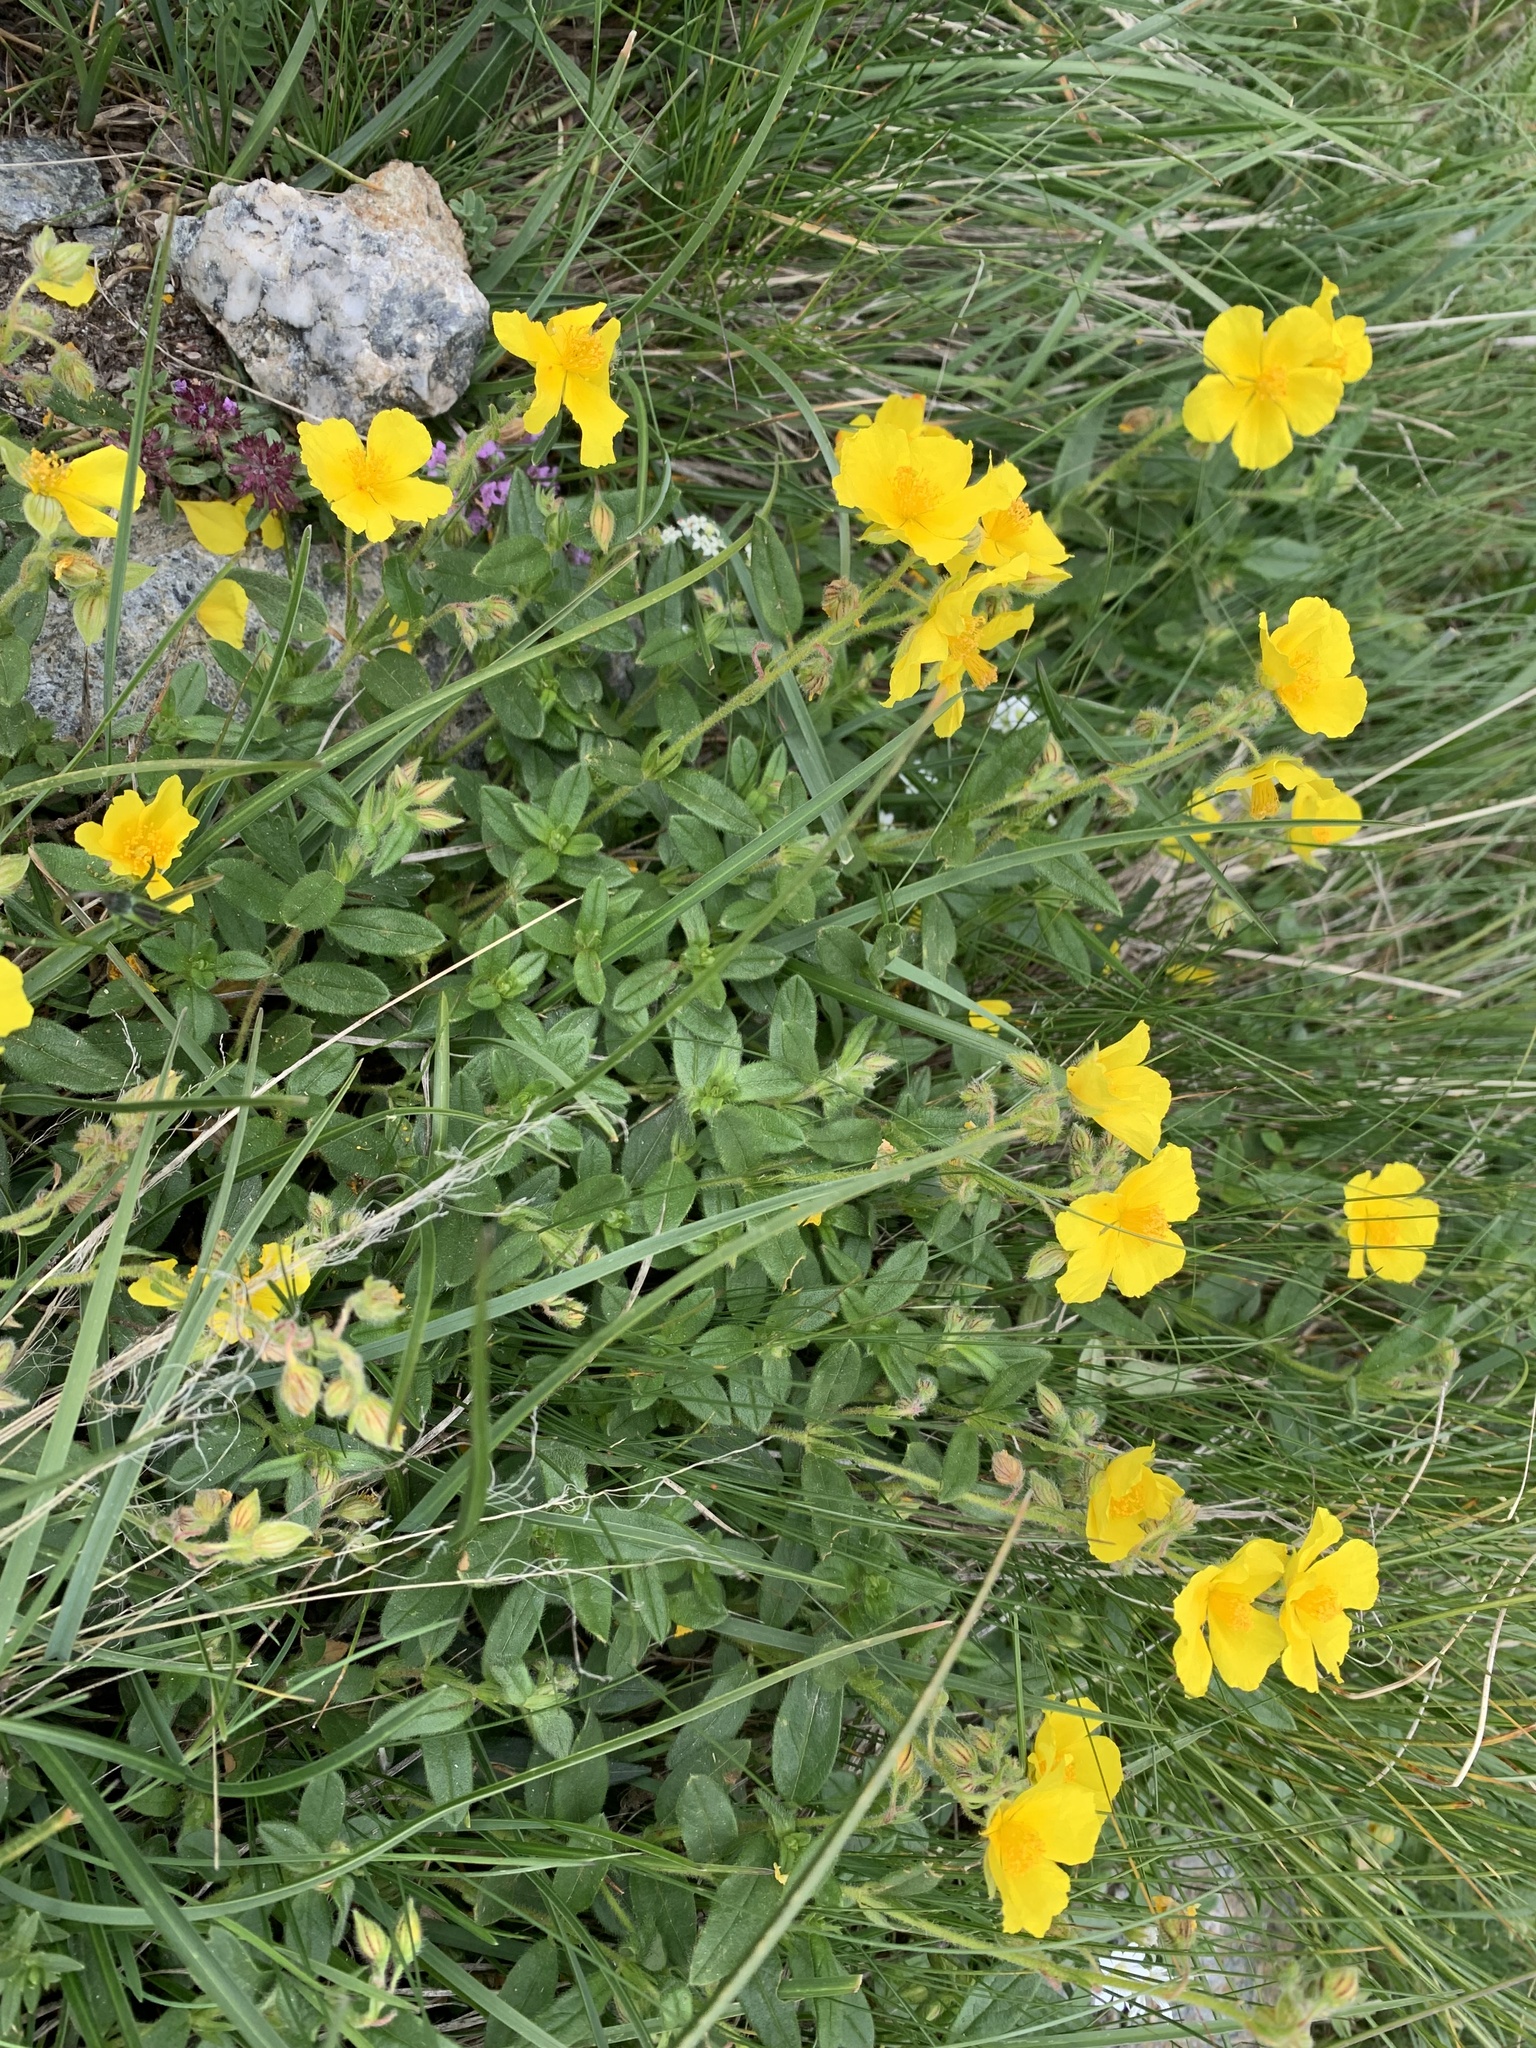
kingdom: Plantae
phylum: Tracheophyta
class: Magnoliopsida
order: Malvales
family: Cistaceae
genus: Helianthemum
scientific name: Helianthemum nummularium
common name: Common rock-rose
